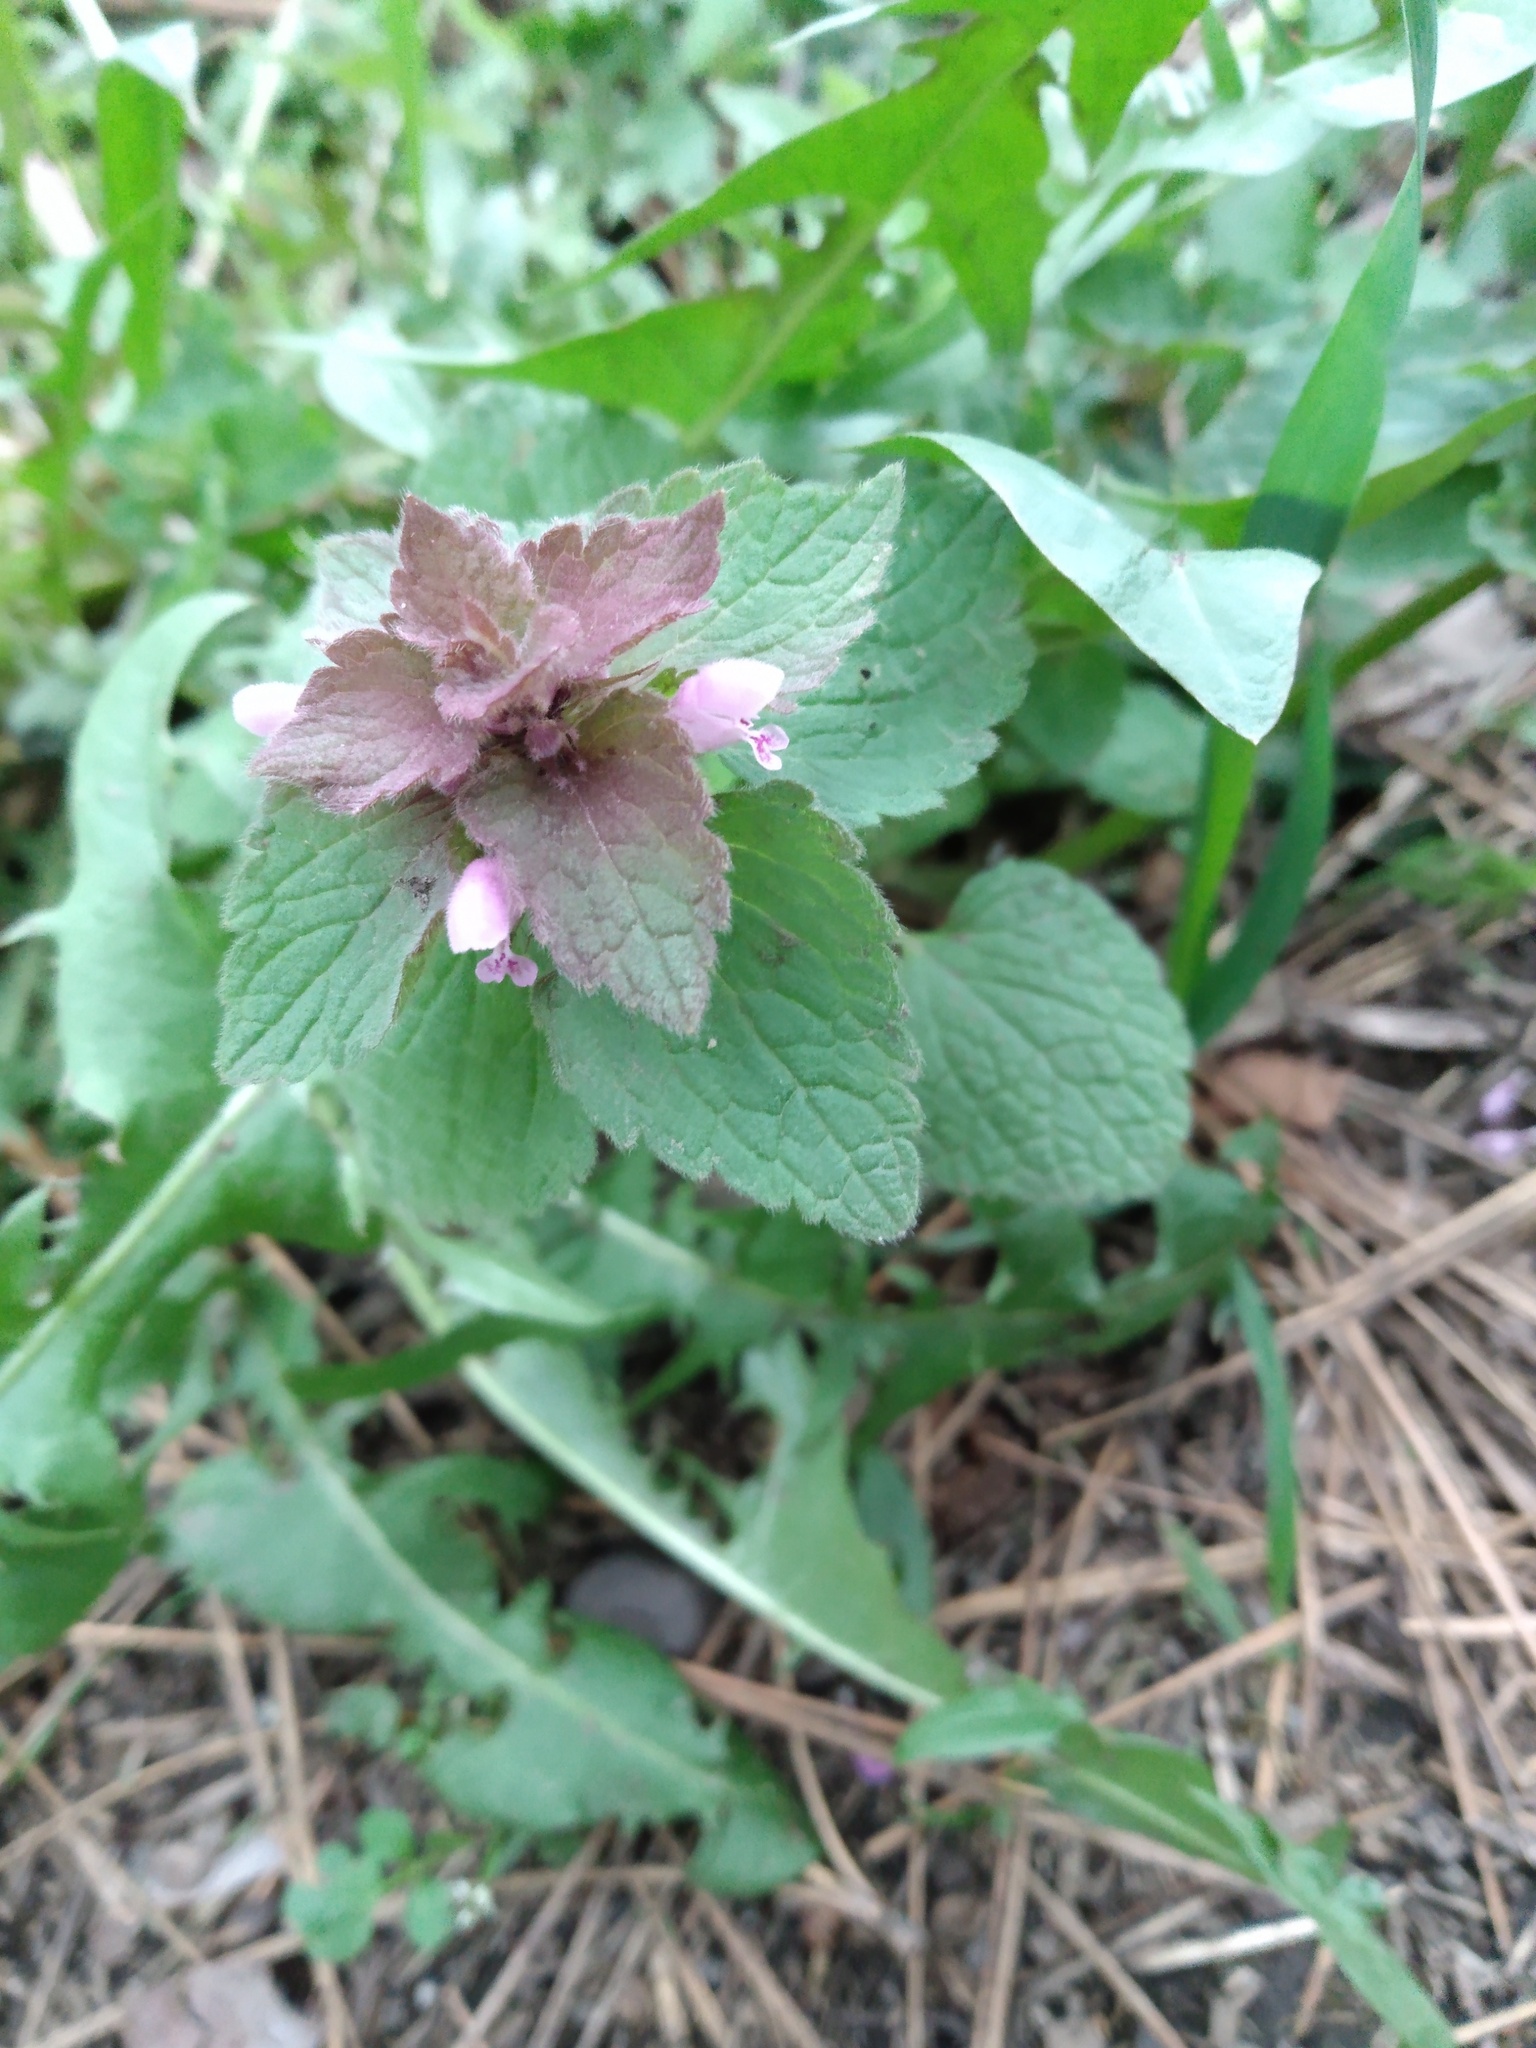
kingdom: Plantae
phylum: Tracheophyta
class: Magnoliopsida
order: Lamiales
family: Lamiaceae
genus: Lamium
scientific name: Lamium purpureum
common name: Red dead-nettle
